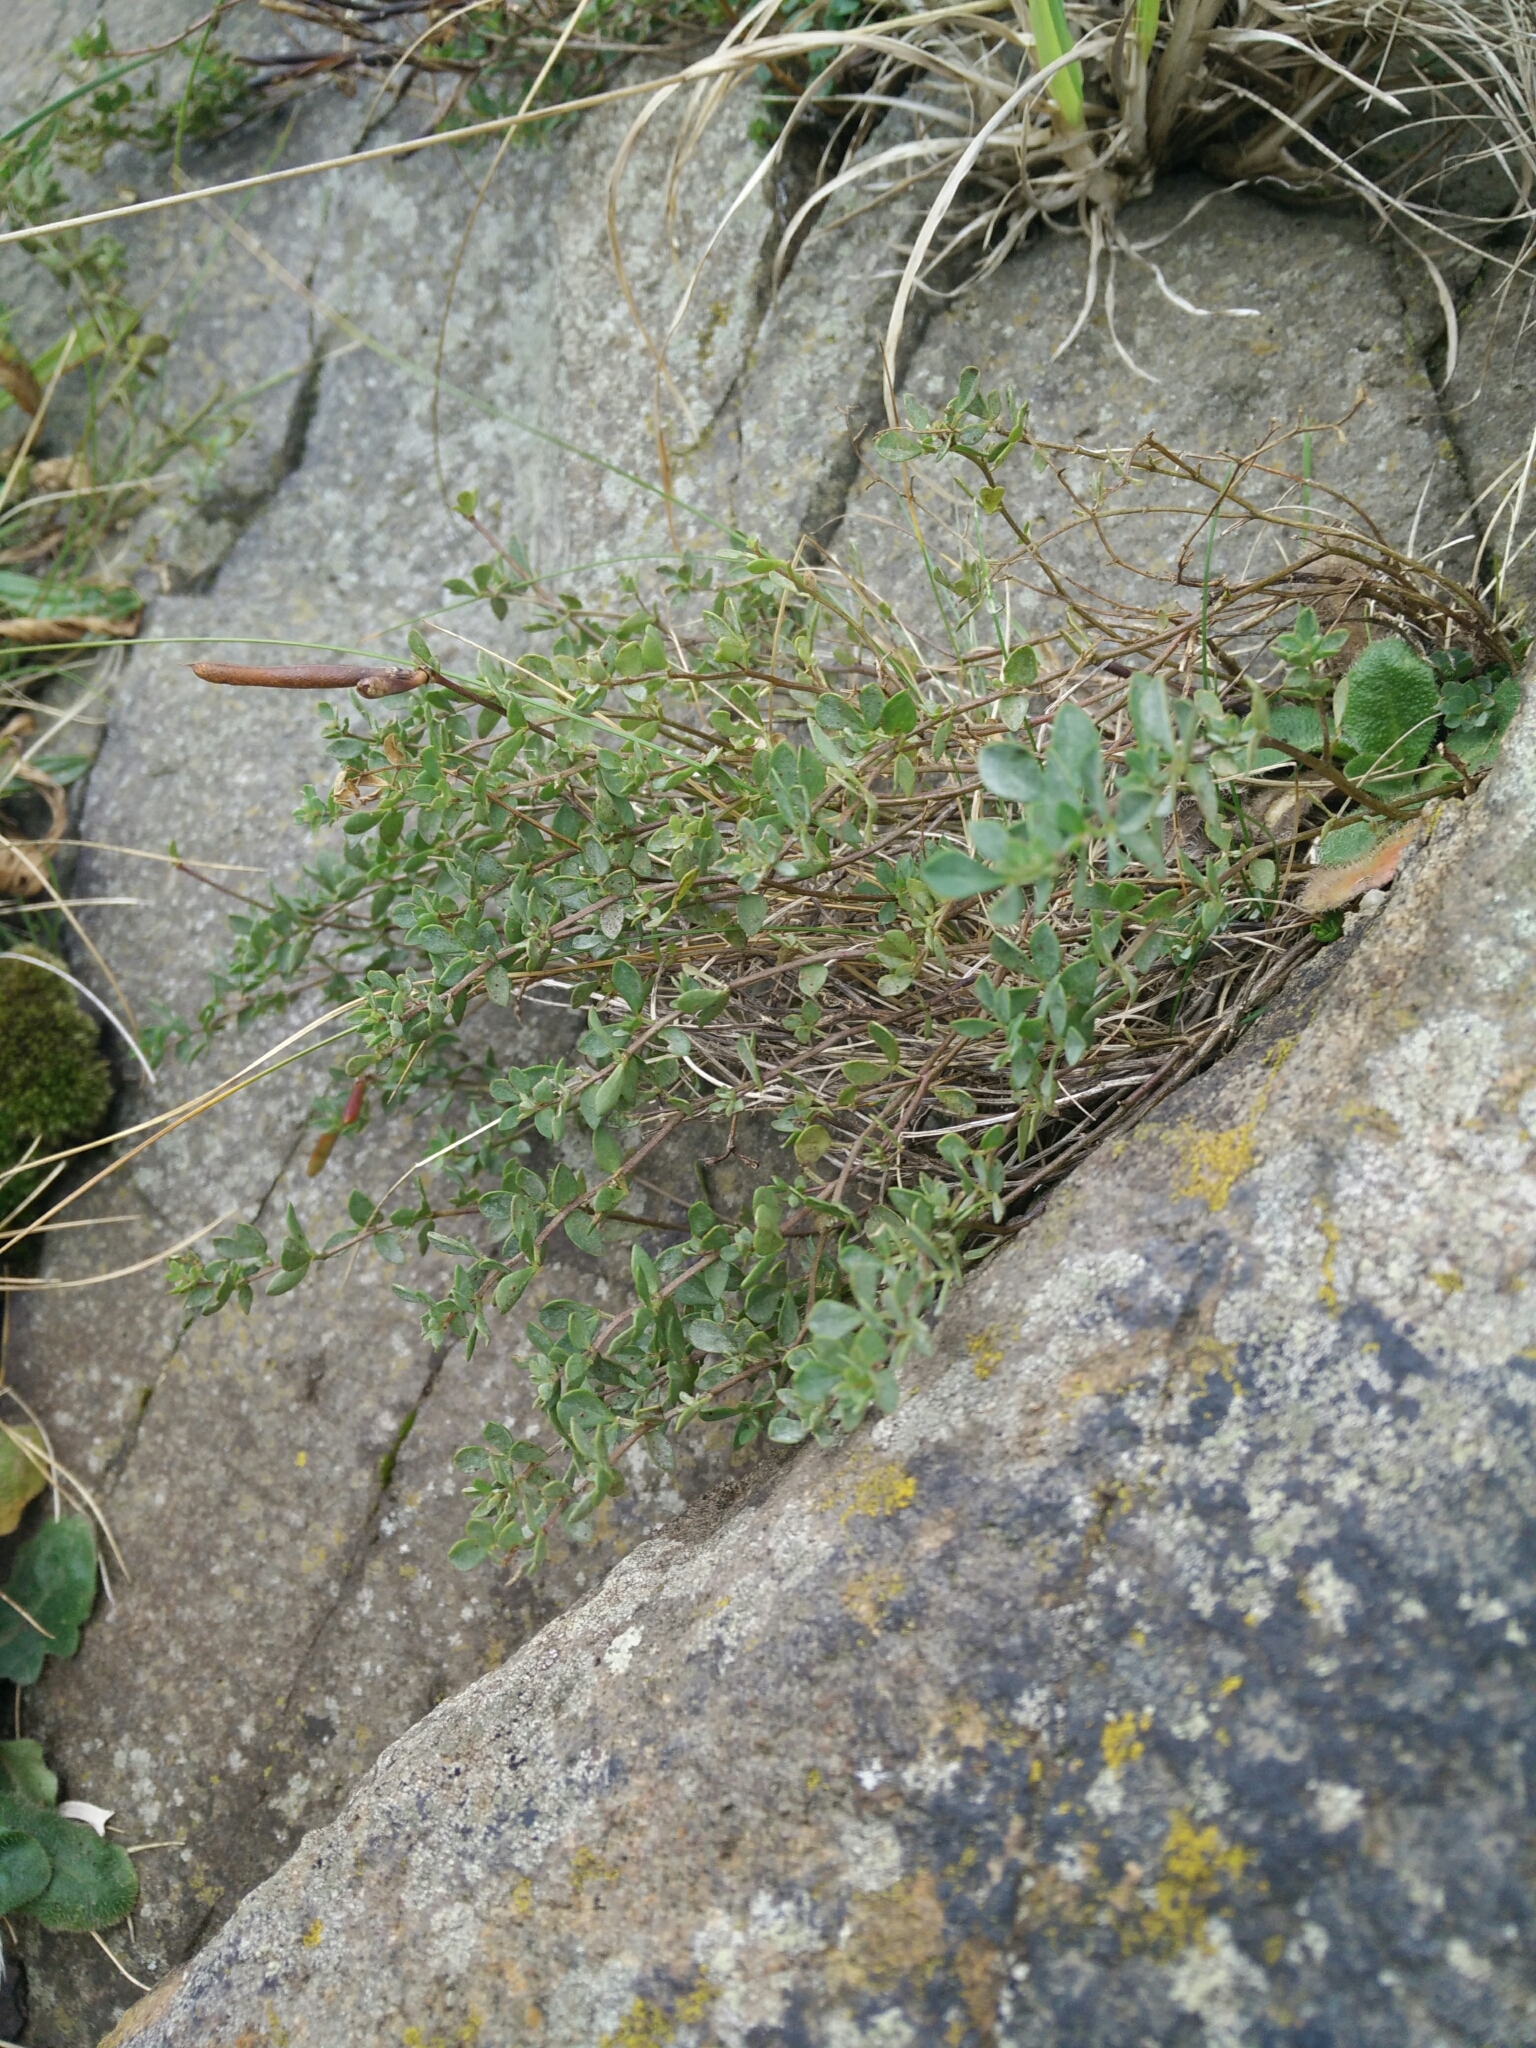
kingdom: Plantae
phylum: Tracheophyta
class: Magnoliopsida
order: Fabales
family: Fabaceae
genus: Lotus
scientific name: Lotus corniculatus
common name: Common bird's-foot-trefoil
